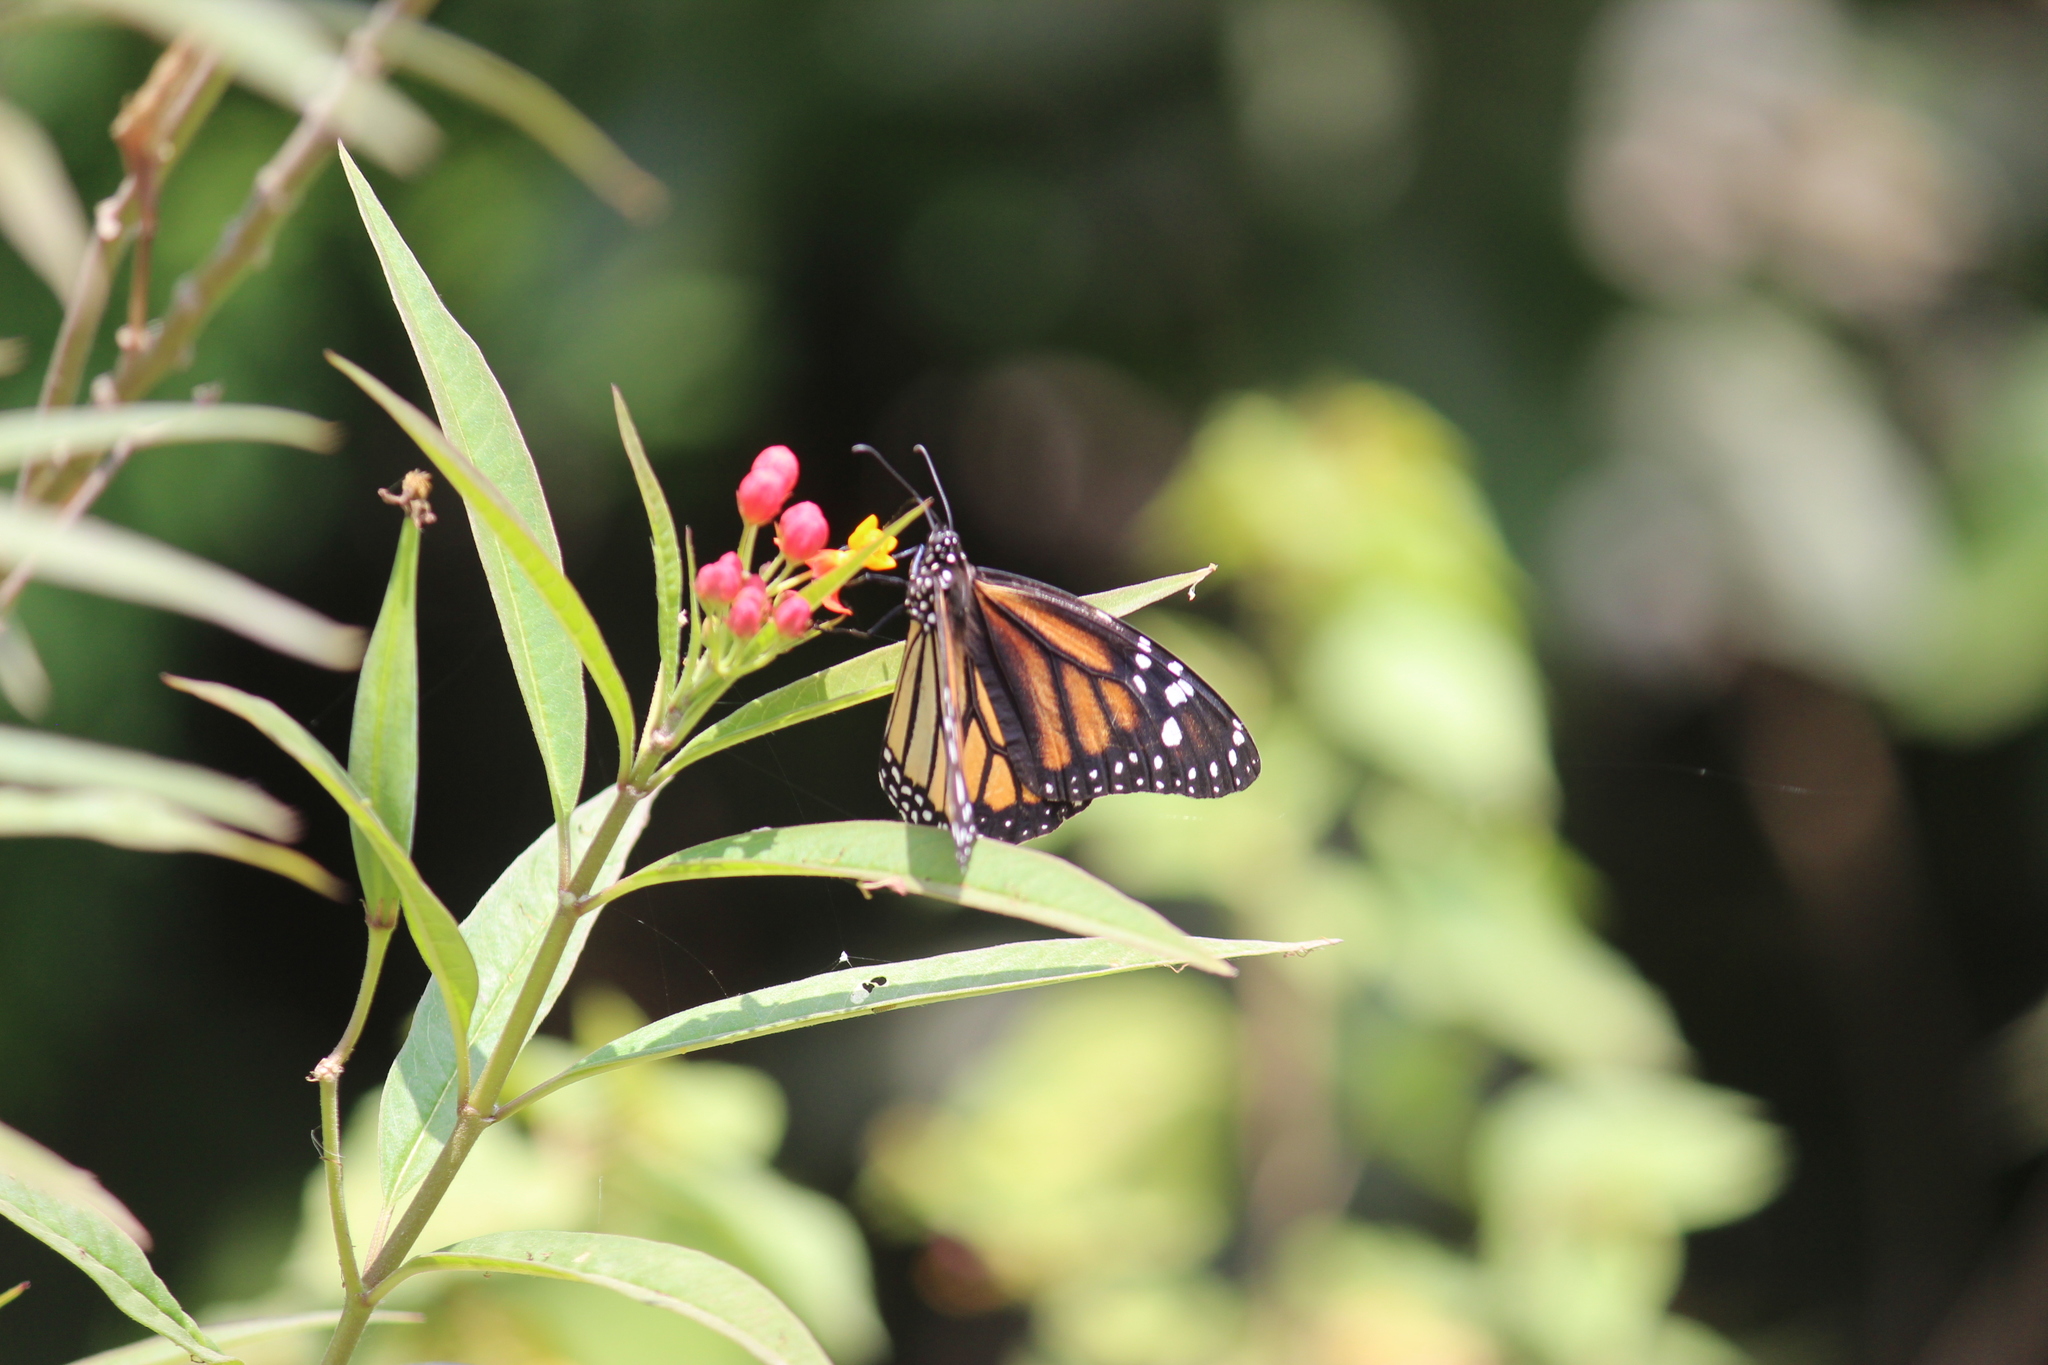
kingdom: Animalia
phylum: Arthropoda
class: Insecta
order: Lepidoptera
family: Nymphalidae
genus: Danaus
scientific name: Danaus plexippus
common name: Monarch
